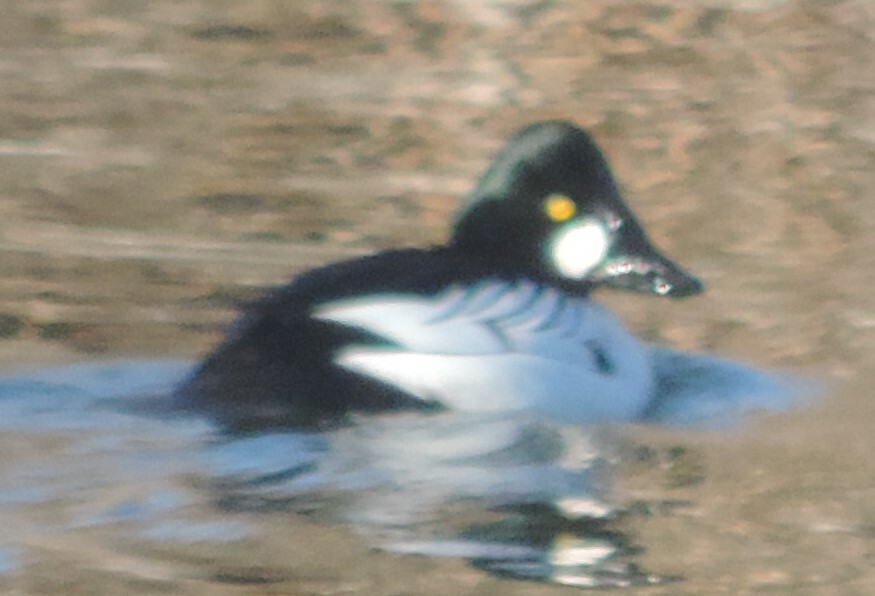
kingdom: Animalia
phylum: Chordata
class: Aves
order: Anseriformes
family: Anatidae
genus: Bucephala
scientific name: Bucephala clangula
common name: Common goldeneye
